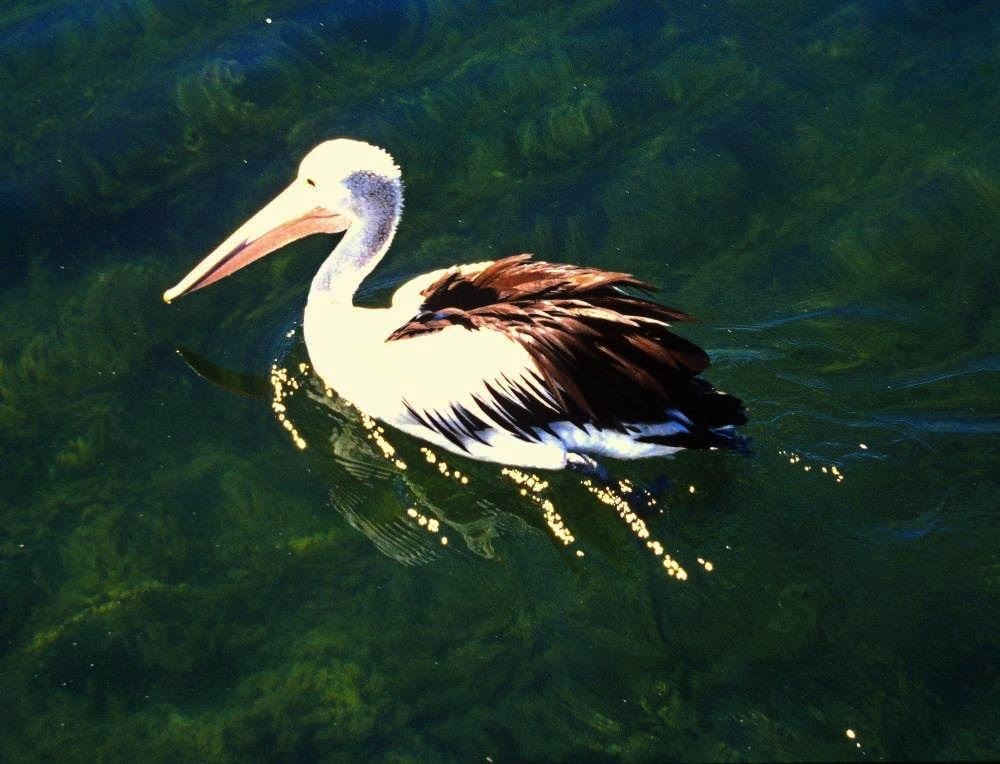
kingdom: Animalia
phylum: Chordata
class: Aves
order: Pelecaniformes
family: Pelecanidae
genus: Pelecanus
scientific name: Pelecanus conspicillatus
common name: Australian pelican
